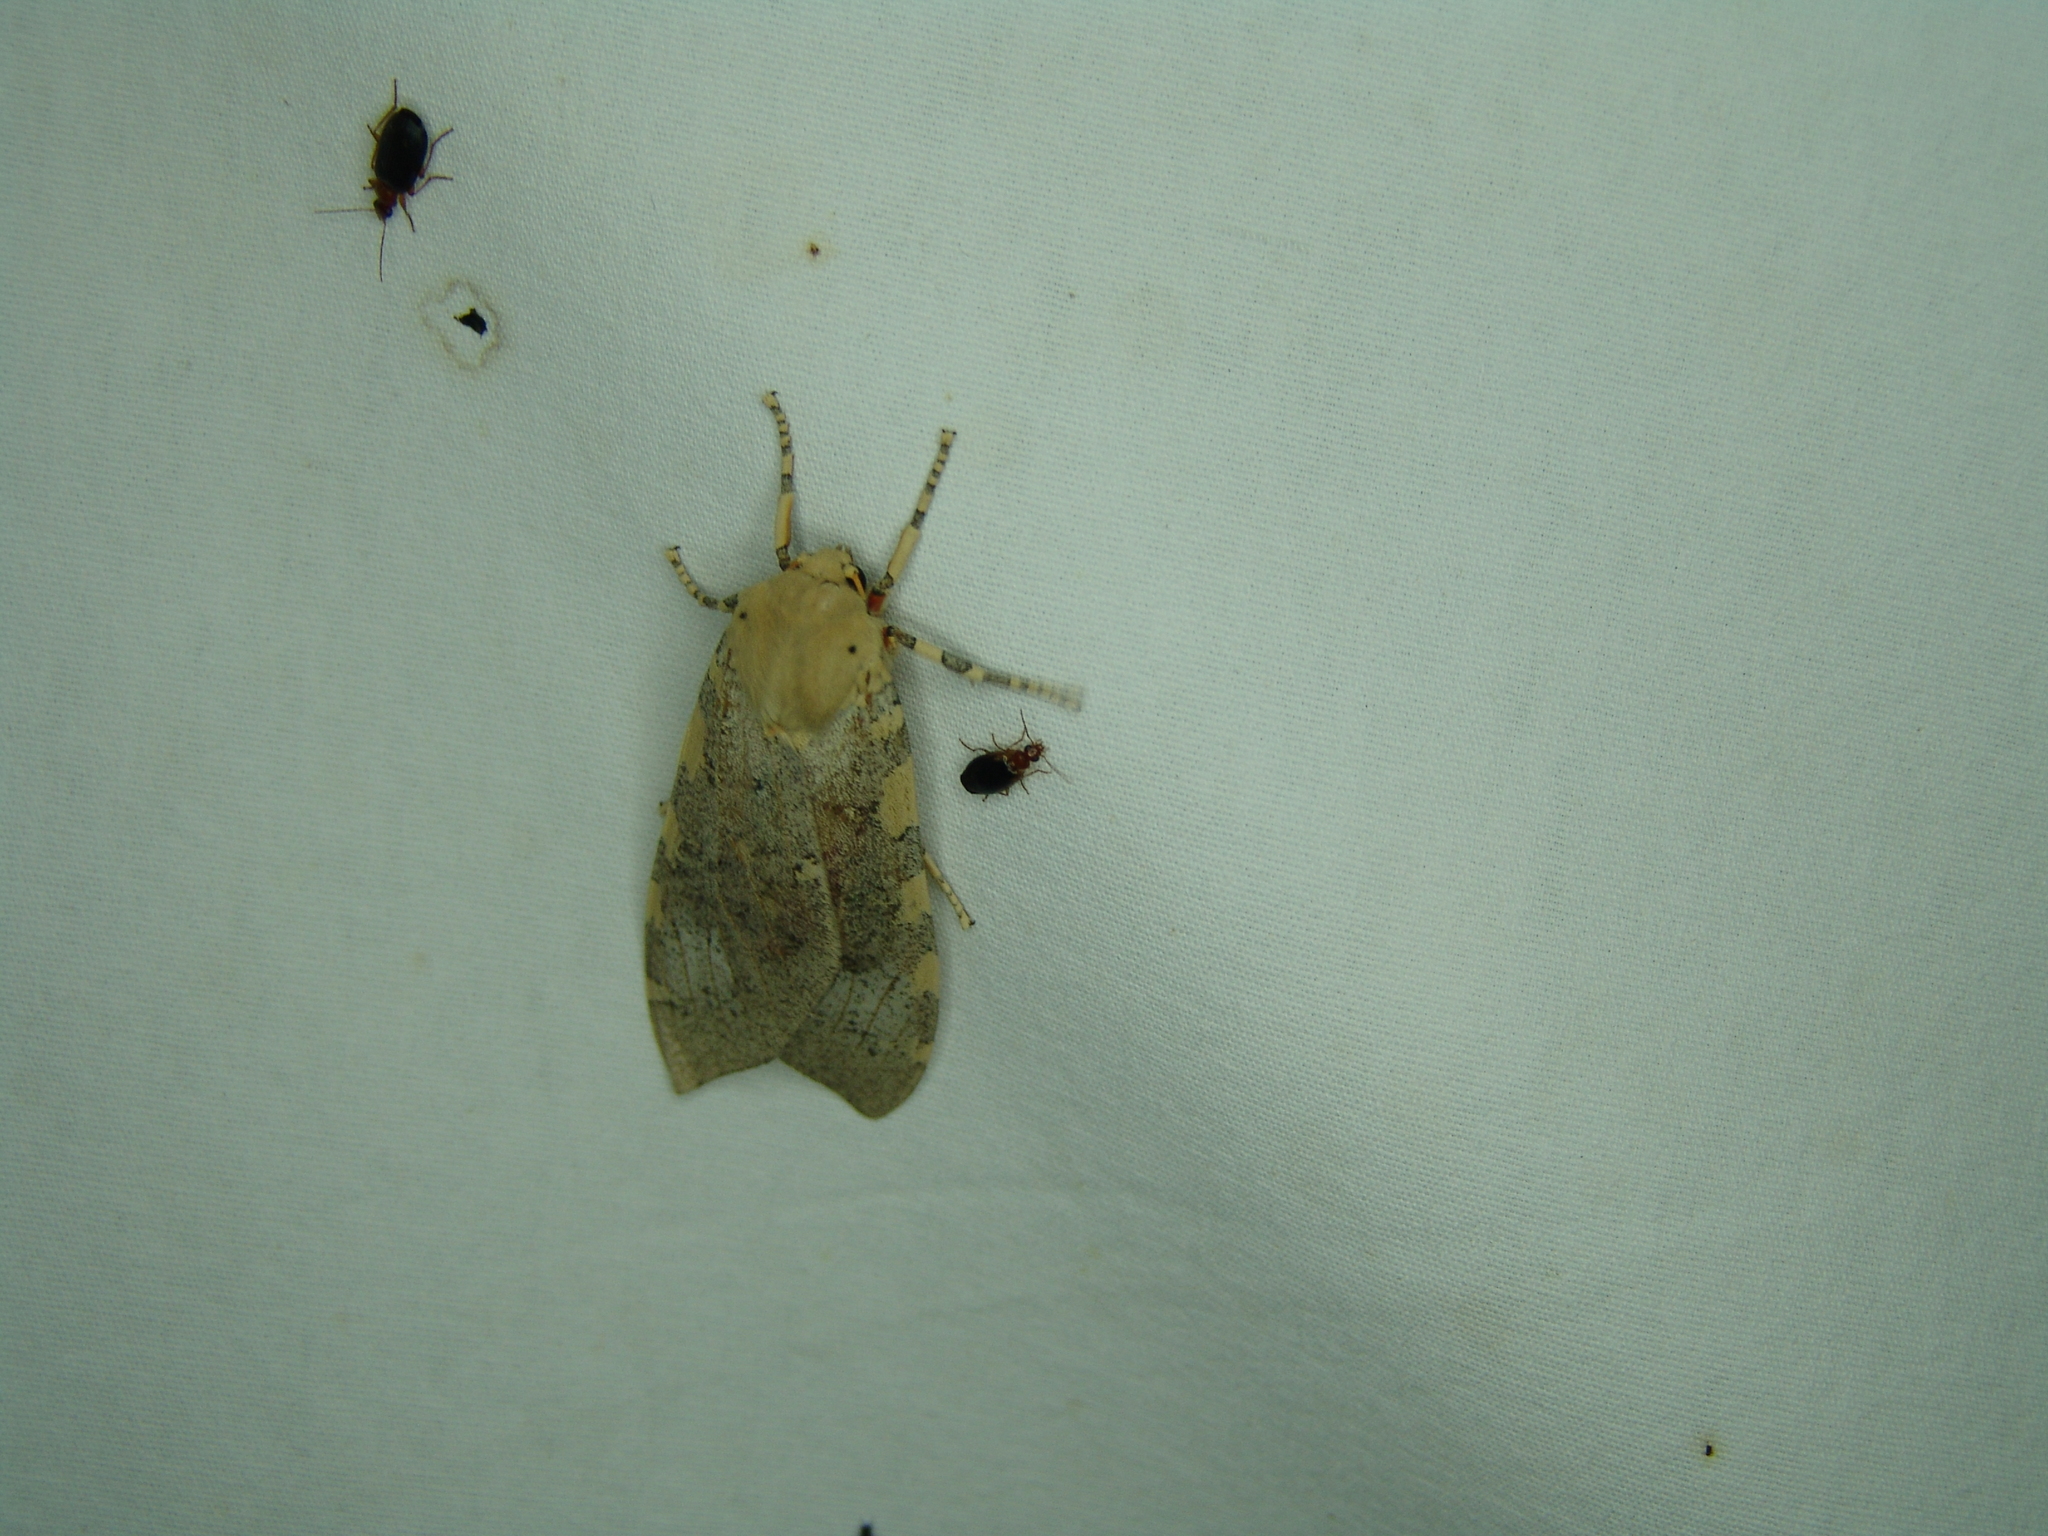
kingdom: Animalia
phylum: Arthropoda
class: Insecta
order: Lepidoptera
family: Erebidae
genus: Hemihyalea
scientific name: Hemihyalea edwardsii
